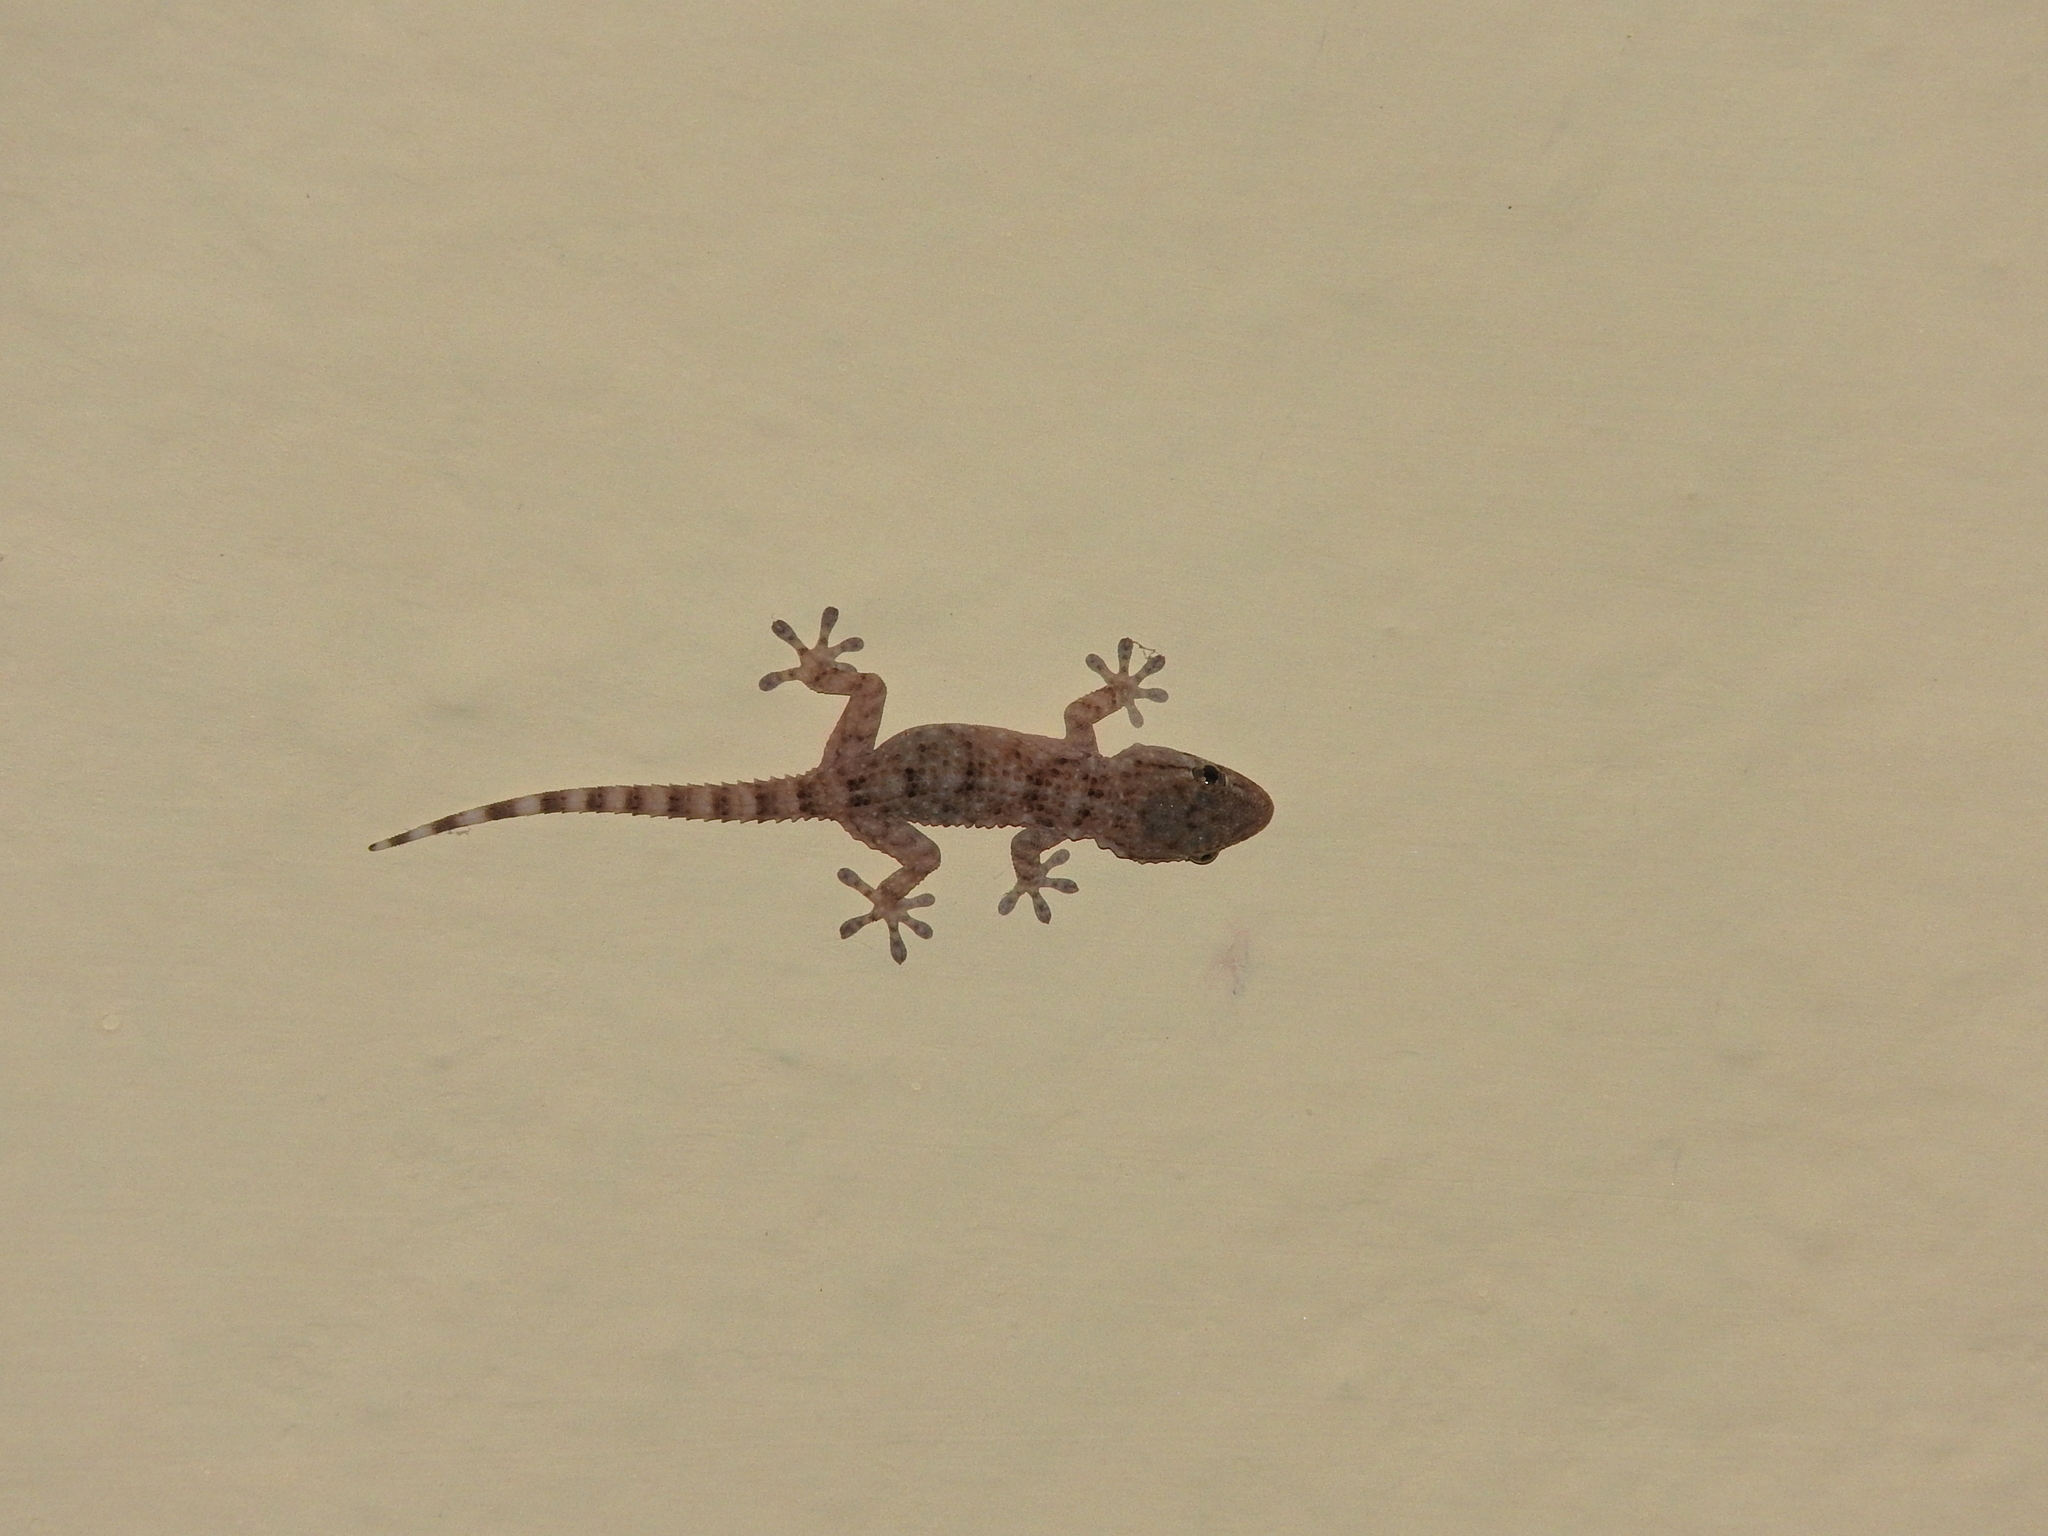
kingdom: Animalia
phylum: Chordata
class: Squamata
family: Phyllodactylidae
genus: Tarentola
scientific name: Tarentola mauritanica
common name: Moorish gecko
